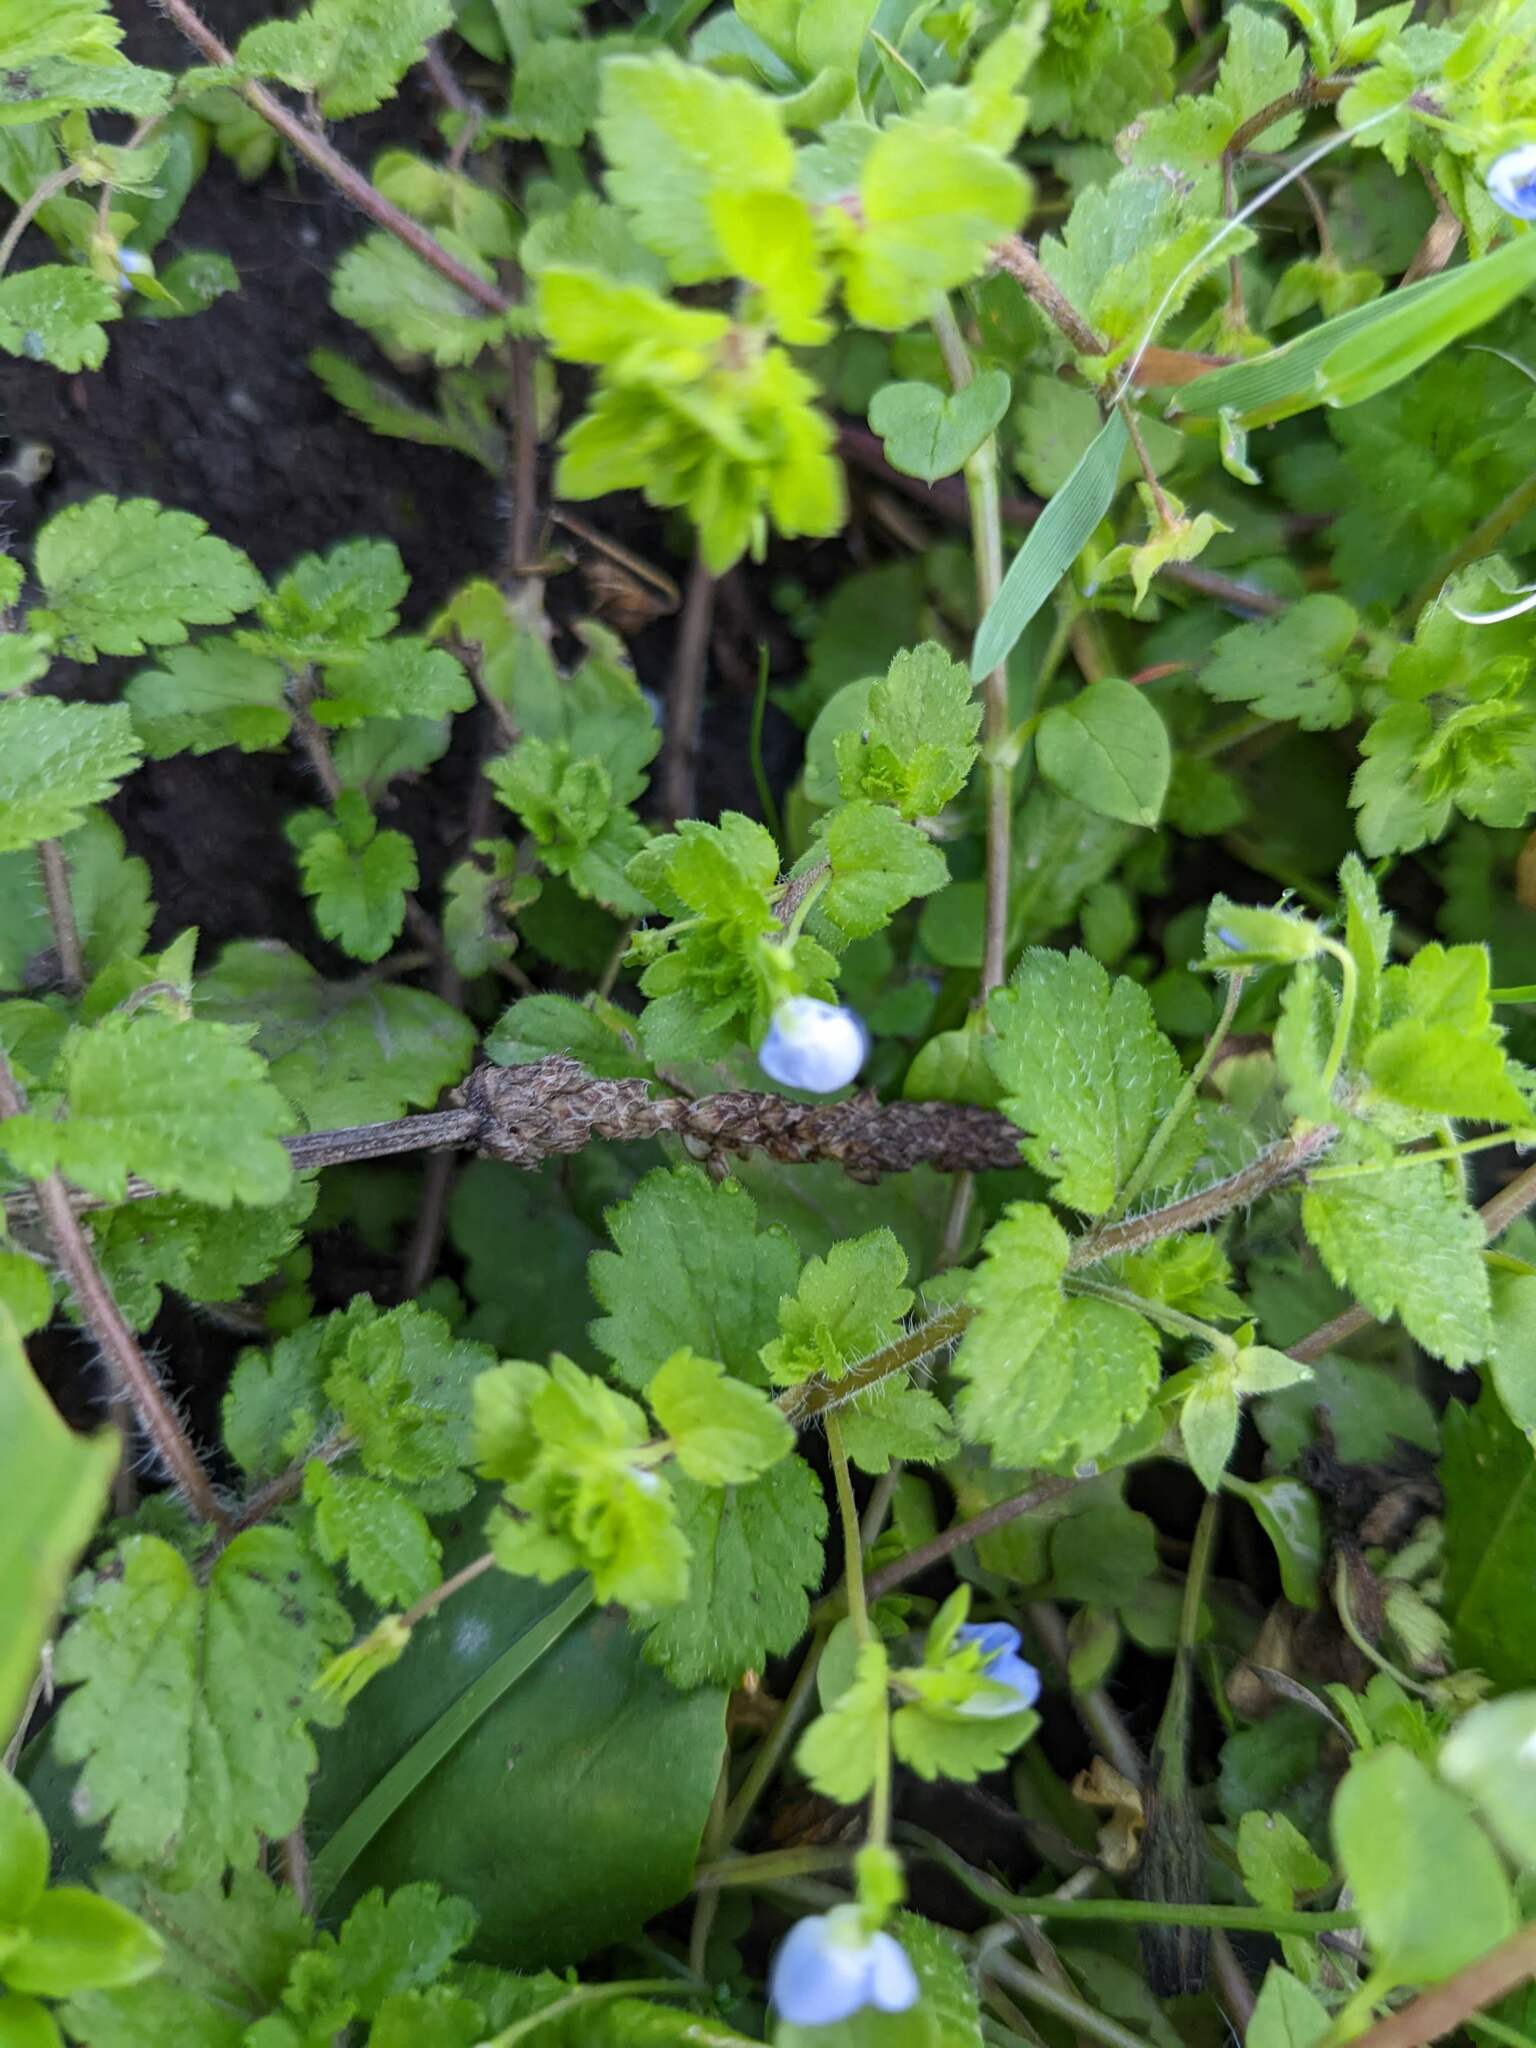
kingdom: Plantae
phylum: Tracheophyta
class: Magnoliopsida
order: Lamiales
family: Plantaginaceae
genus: Veronica
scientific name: Veronica persica
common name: Common field-speedwell
